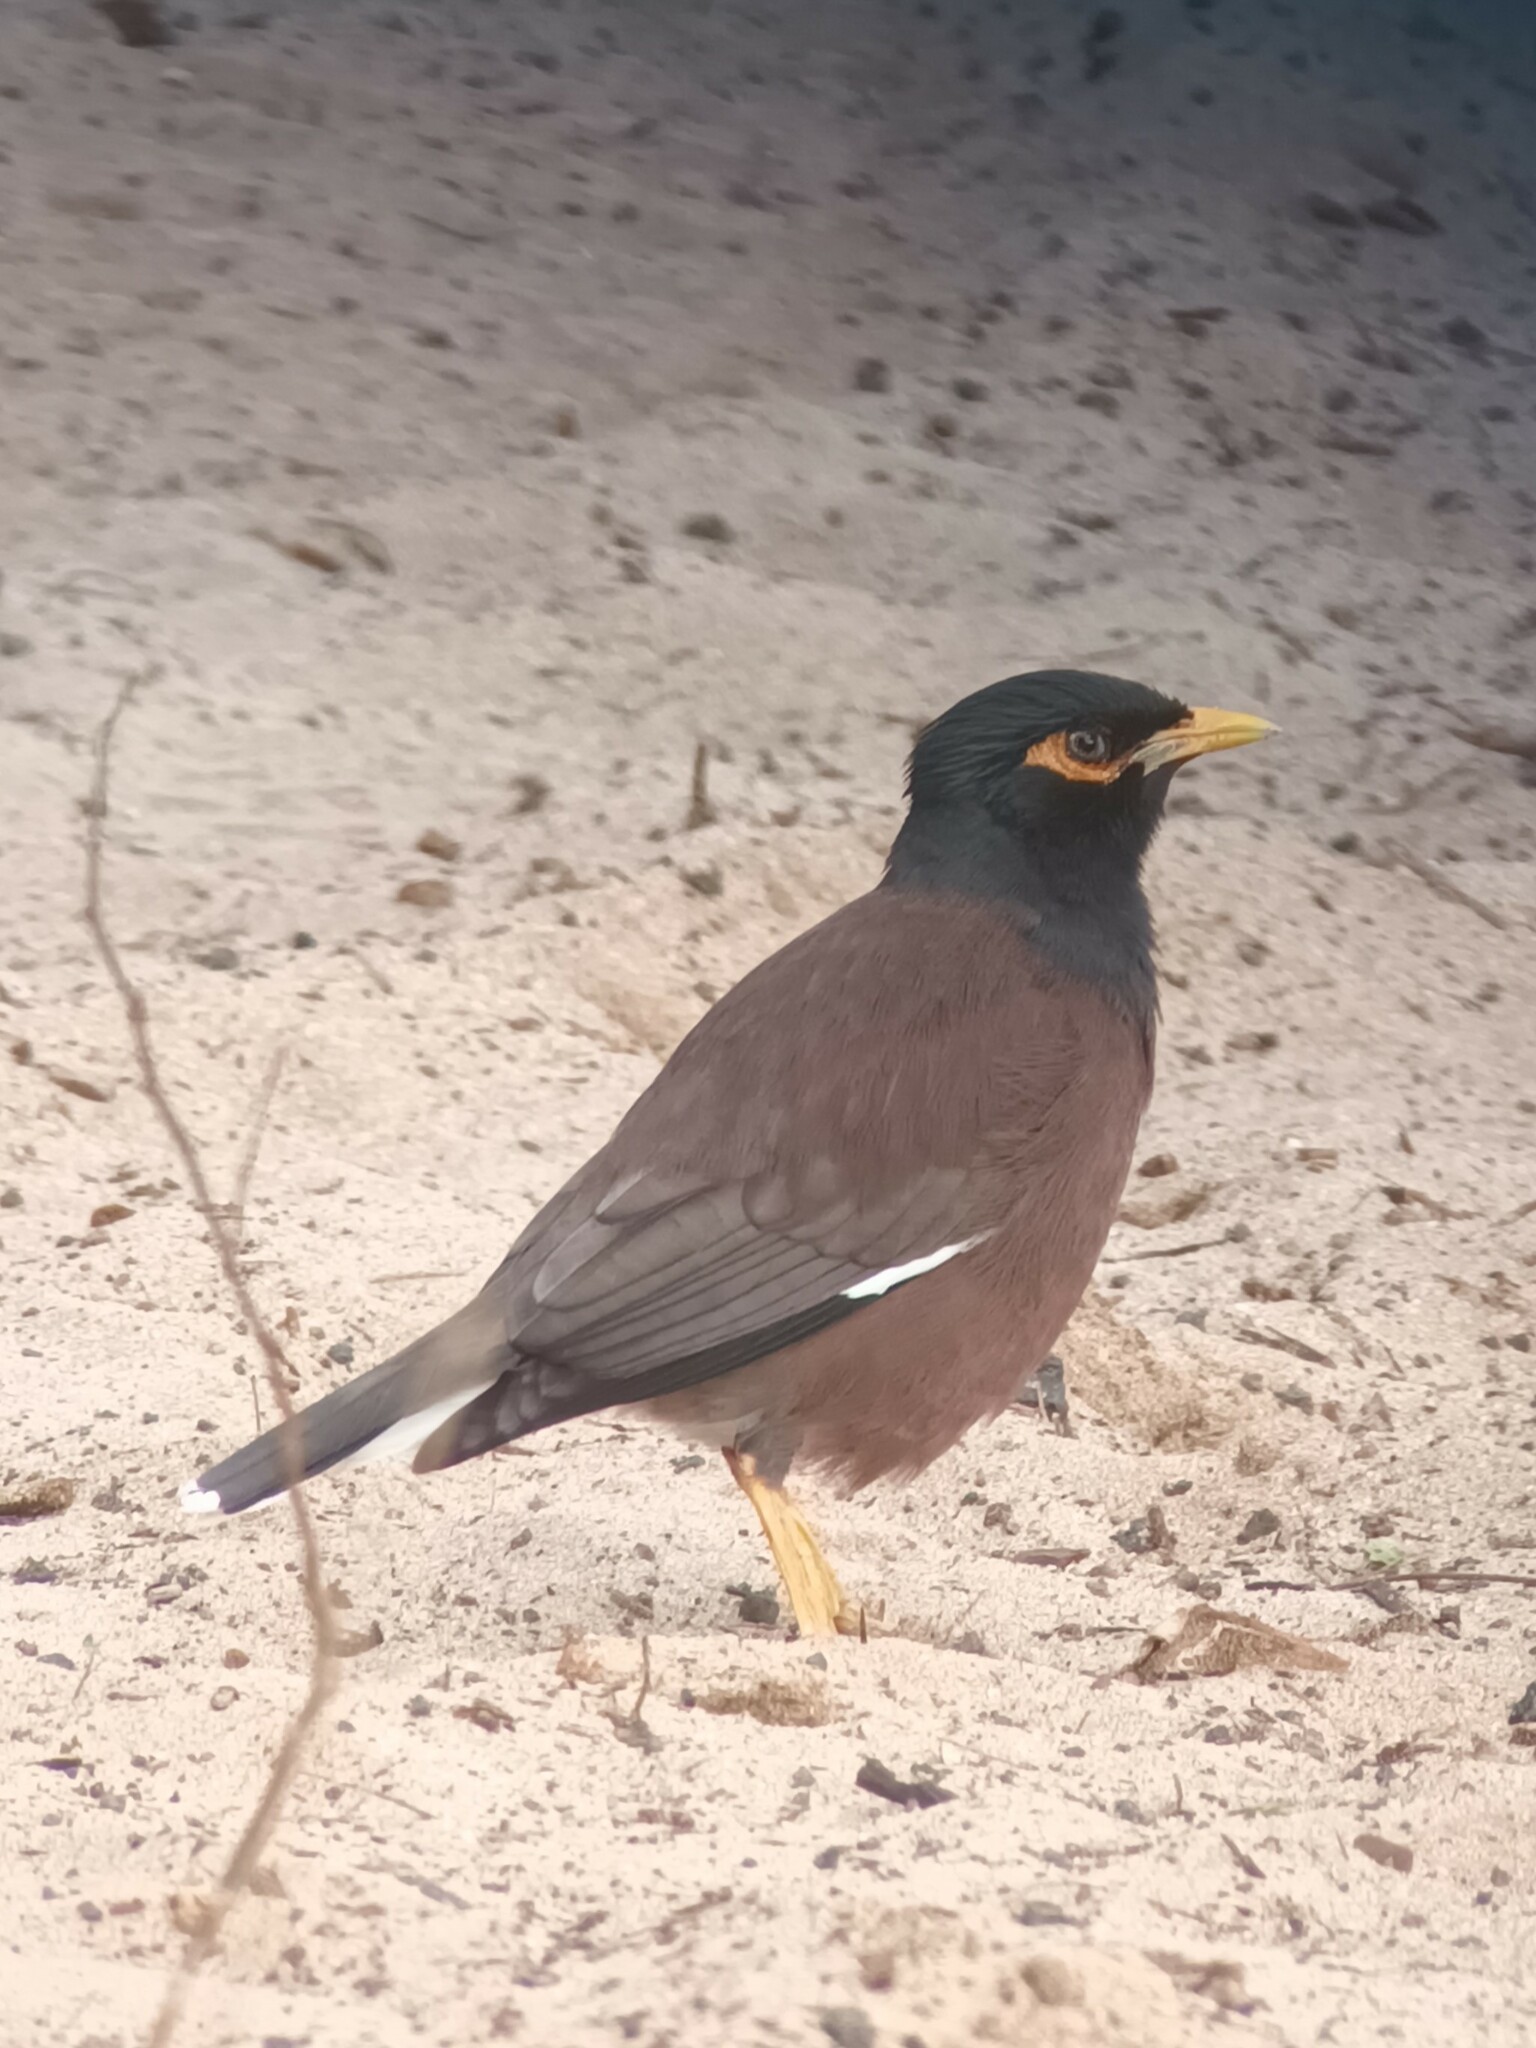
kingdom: Animalia
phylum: Chordata
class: Aves
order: Passeriformes
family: Sturnidae
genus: Acridotheres
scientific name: Acridotheres tristis
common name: Common myna
